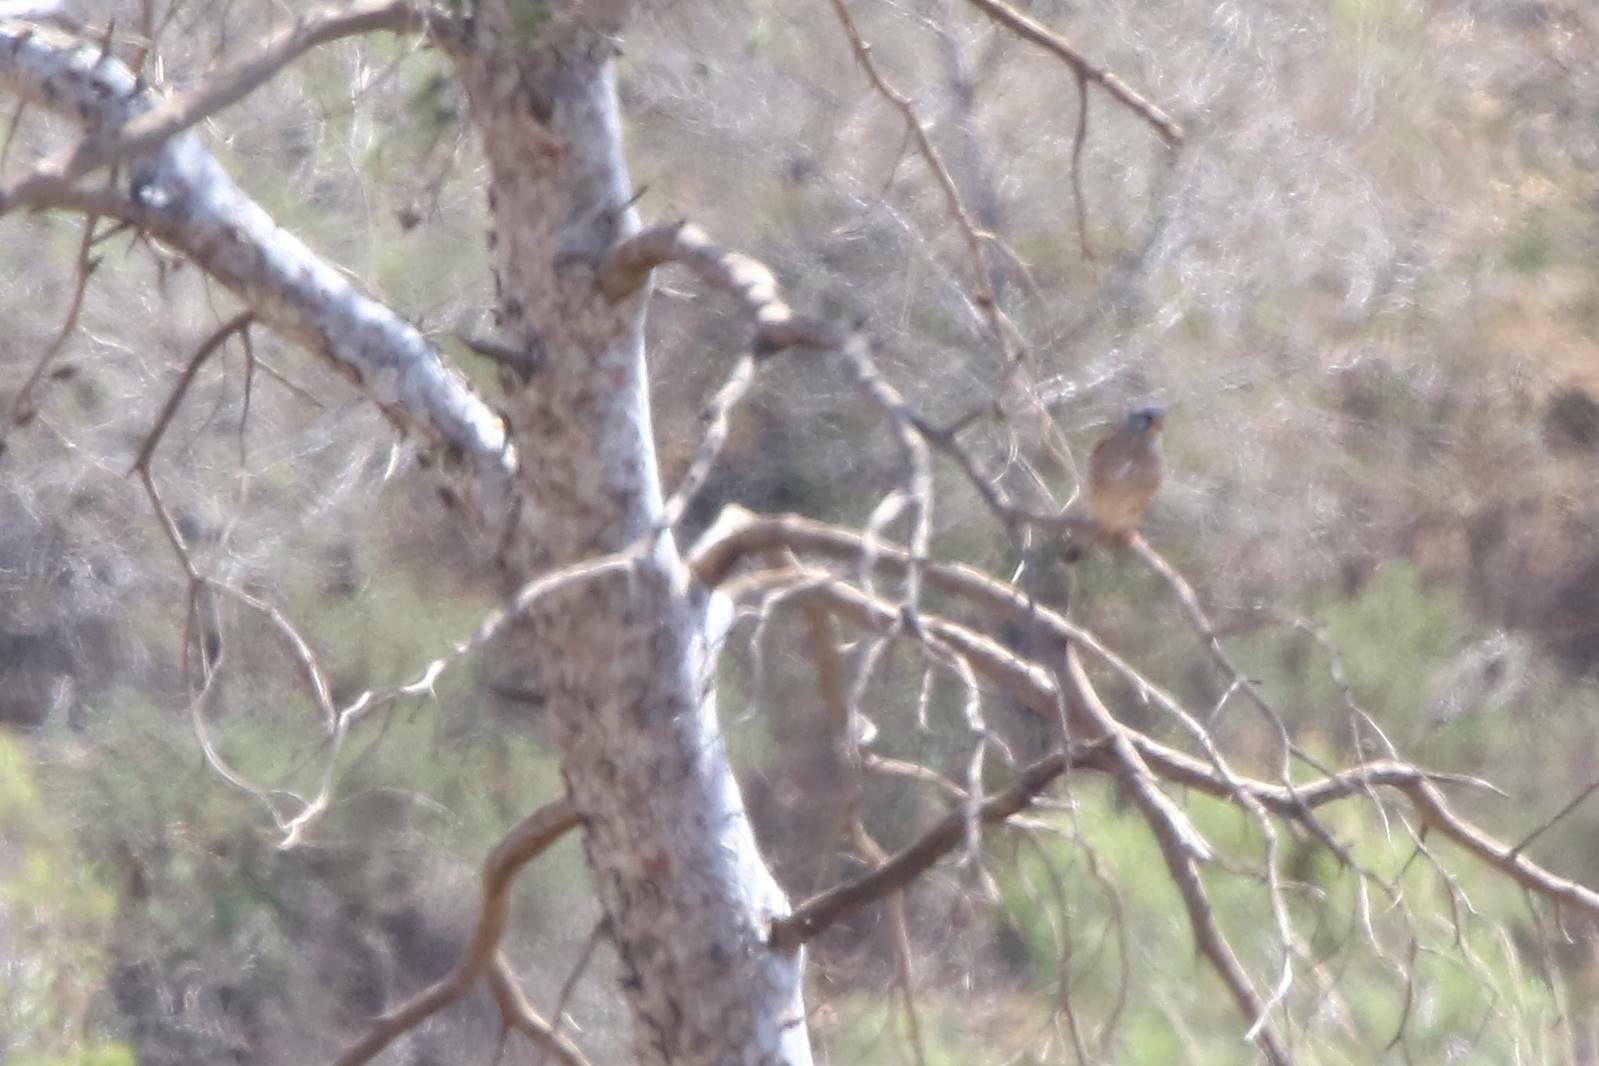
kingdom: Animalia
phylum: Chordata
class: Aves
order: Falconiformes
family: Falconidae
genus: Falco
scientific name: Falco tinnunculus
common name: Common kestrel
